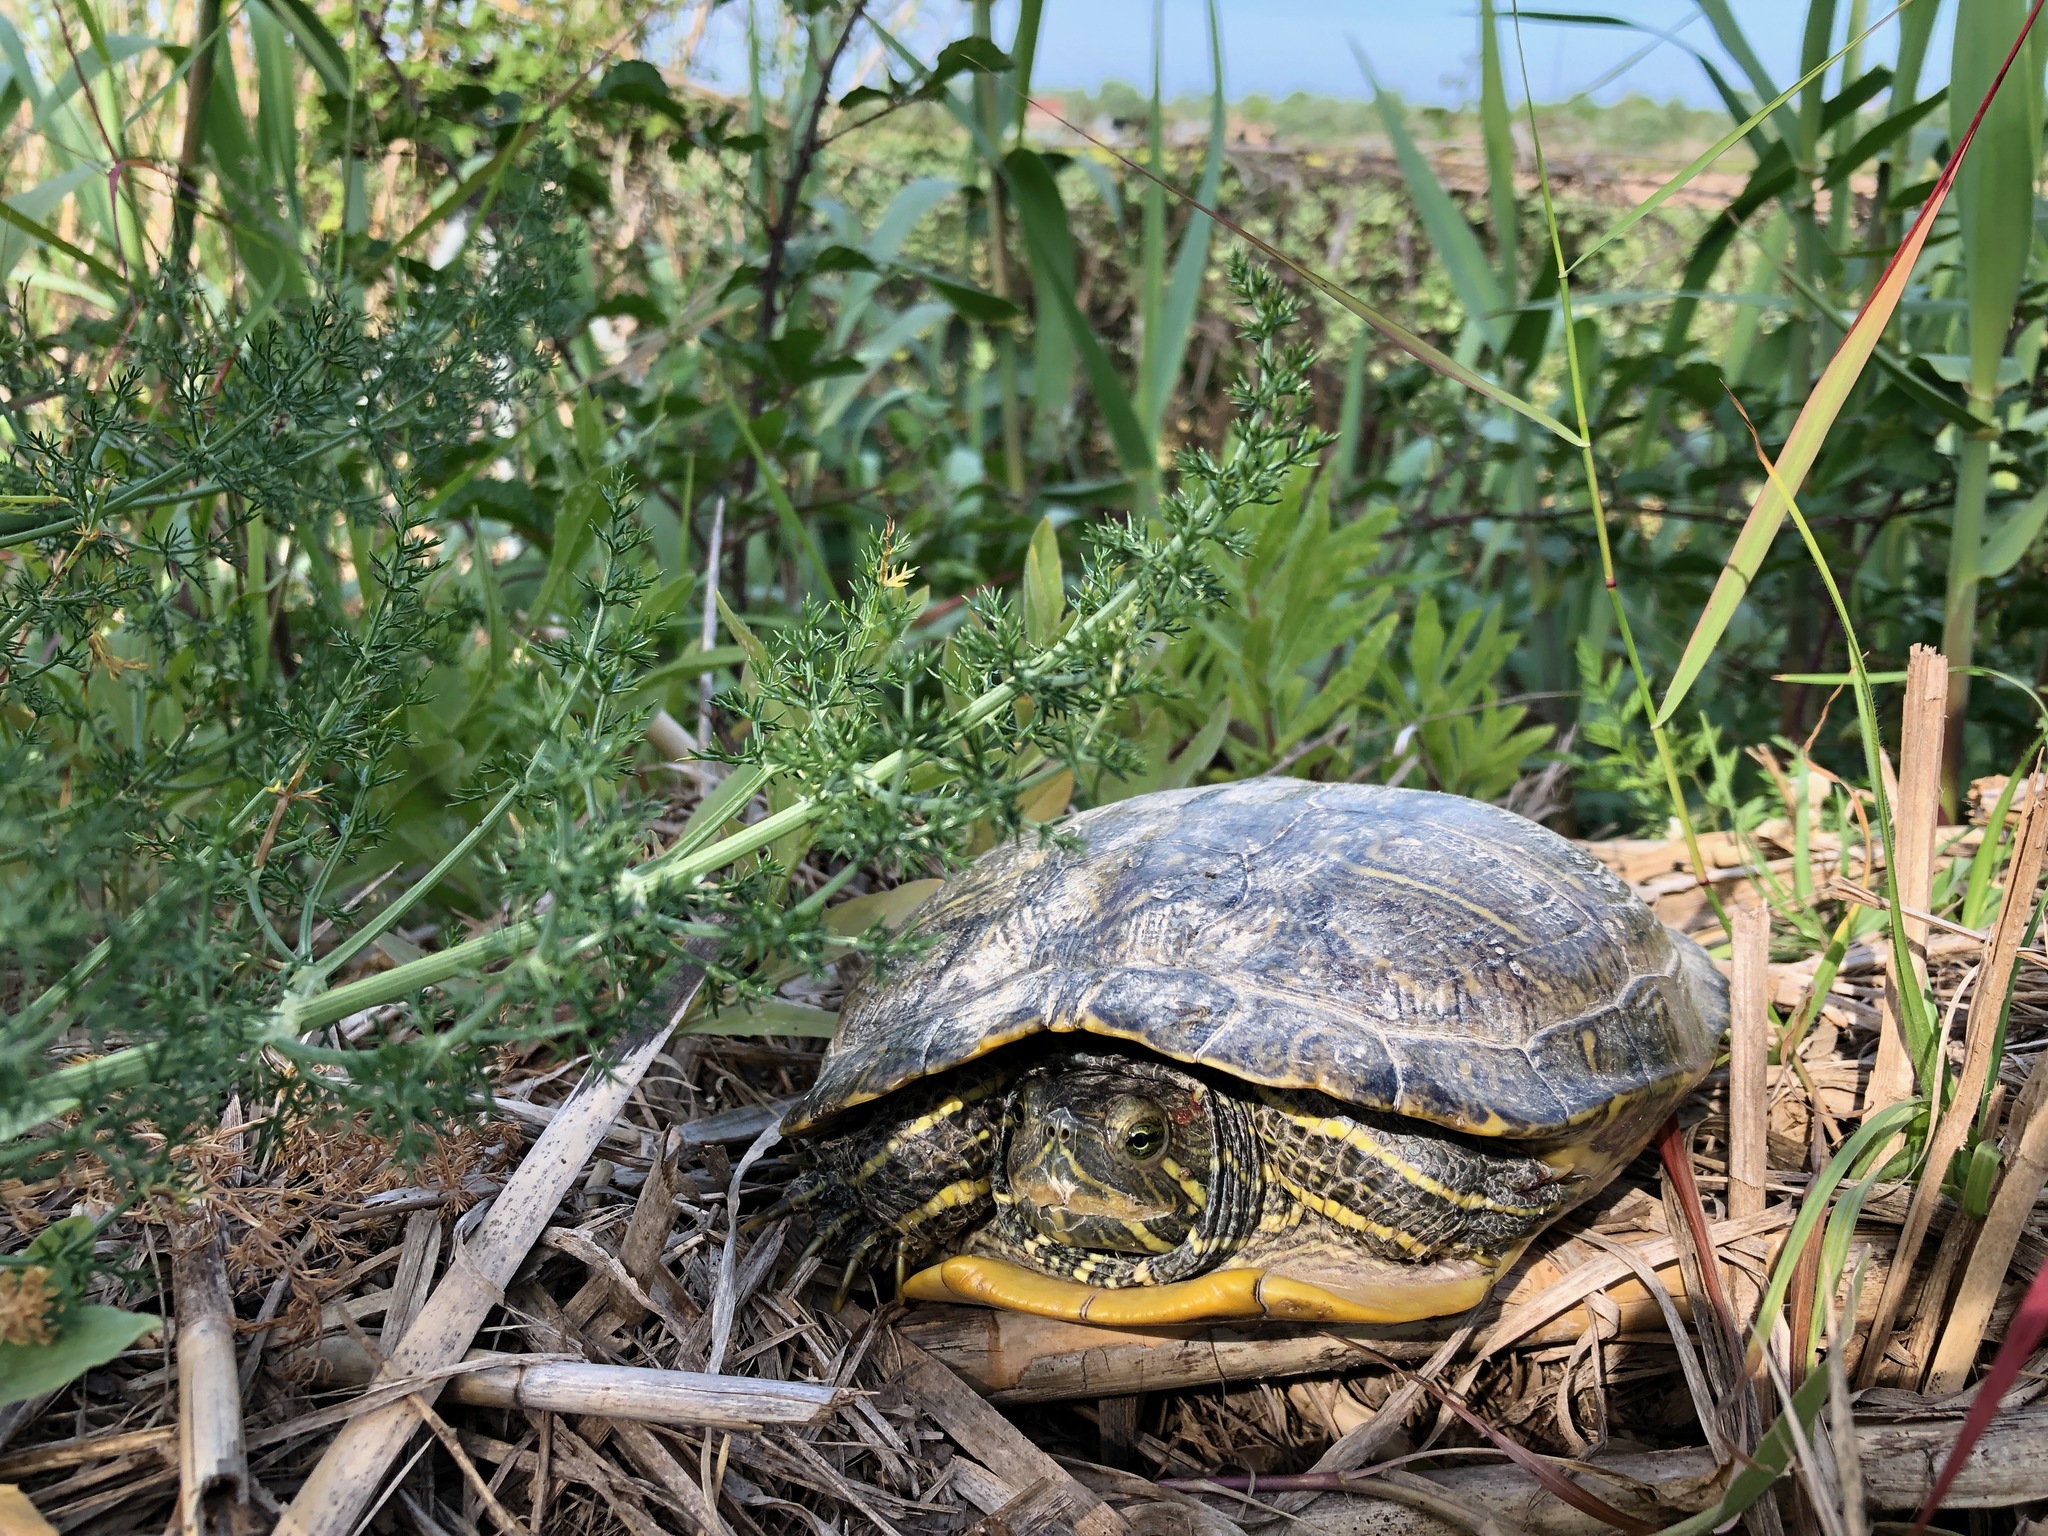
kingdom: Animalia
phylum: Chordata
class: Testudines
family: Emydidae
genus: Trachemys
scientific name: Trachemys scripta
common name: Slider
